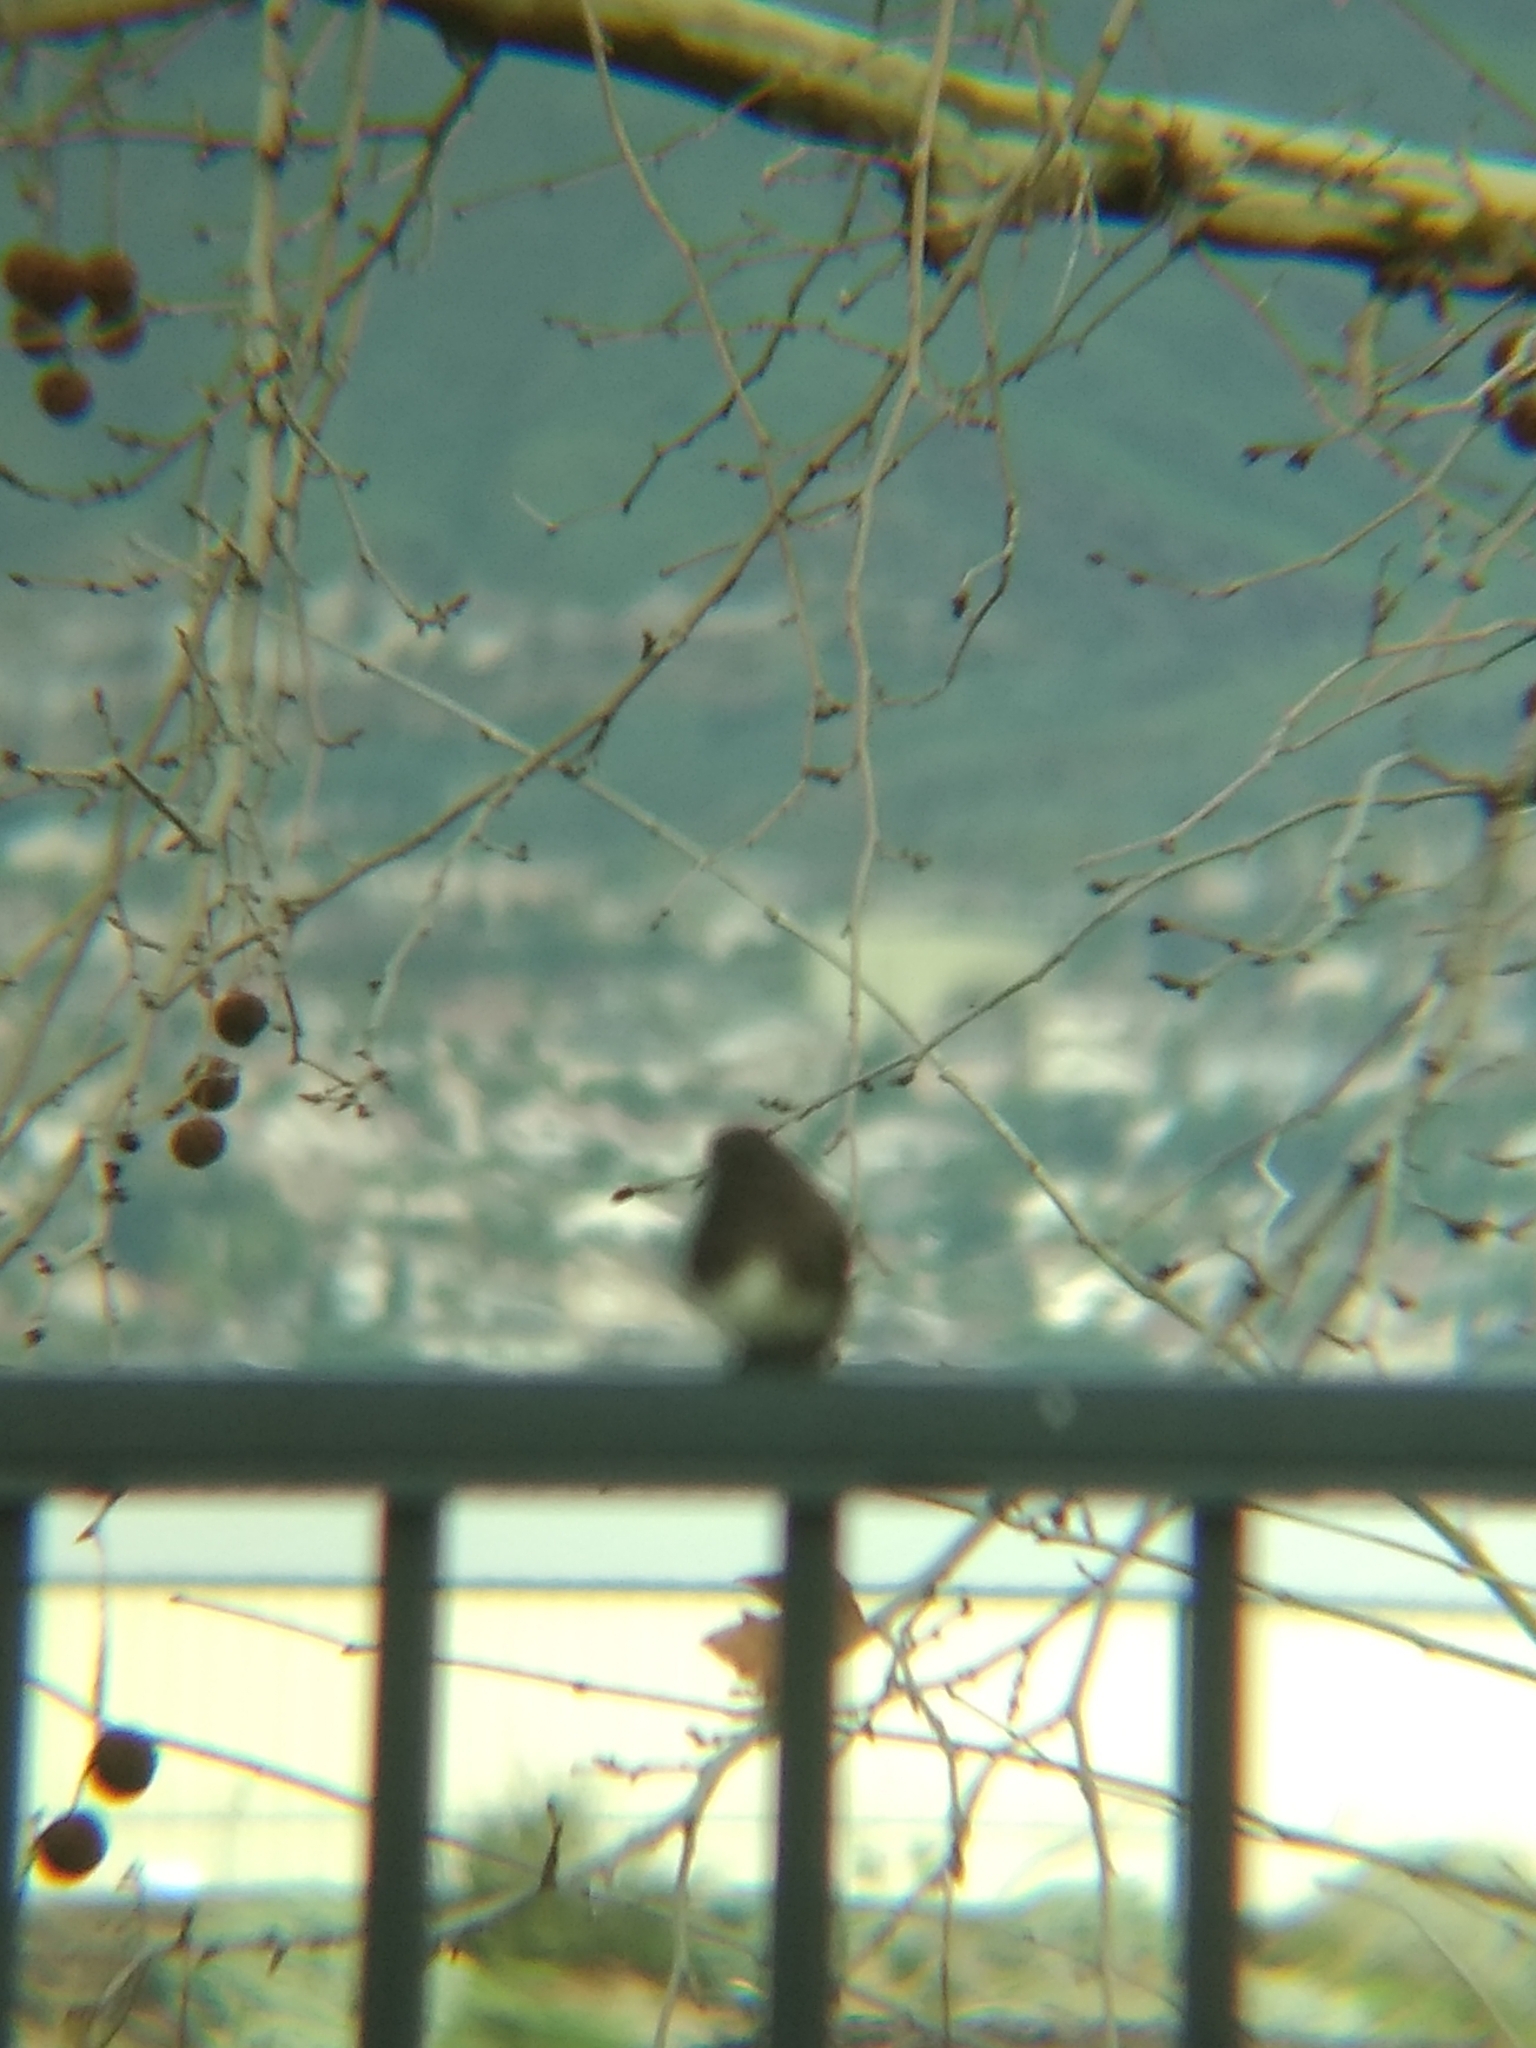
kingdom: Animalia
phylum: Chordata
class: Aves
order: Passeriformes
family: Tyrannidae
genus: Sayornis
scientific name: Sayornis nigricans
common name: Black phoebe
